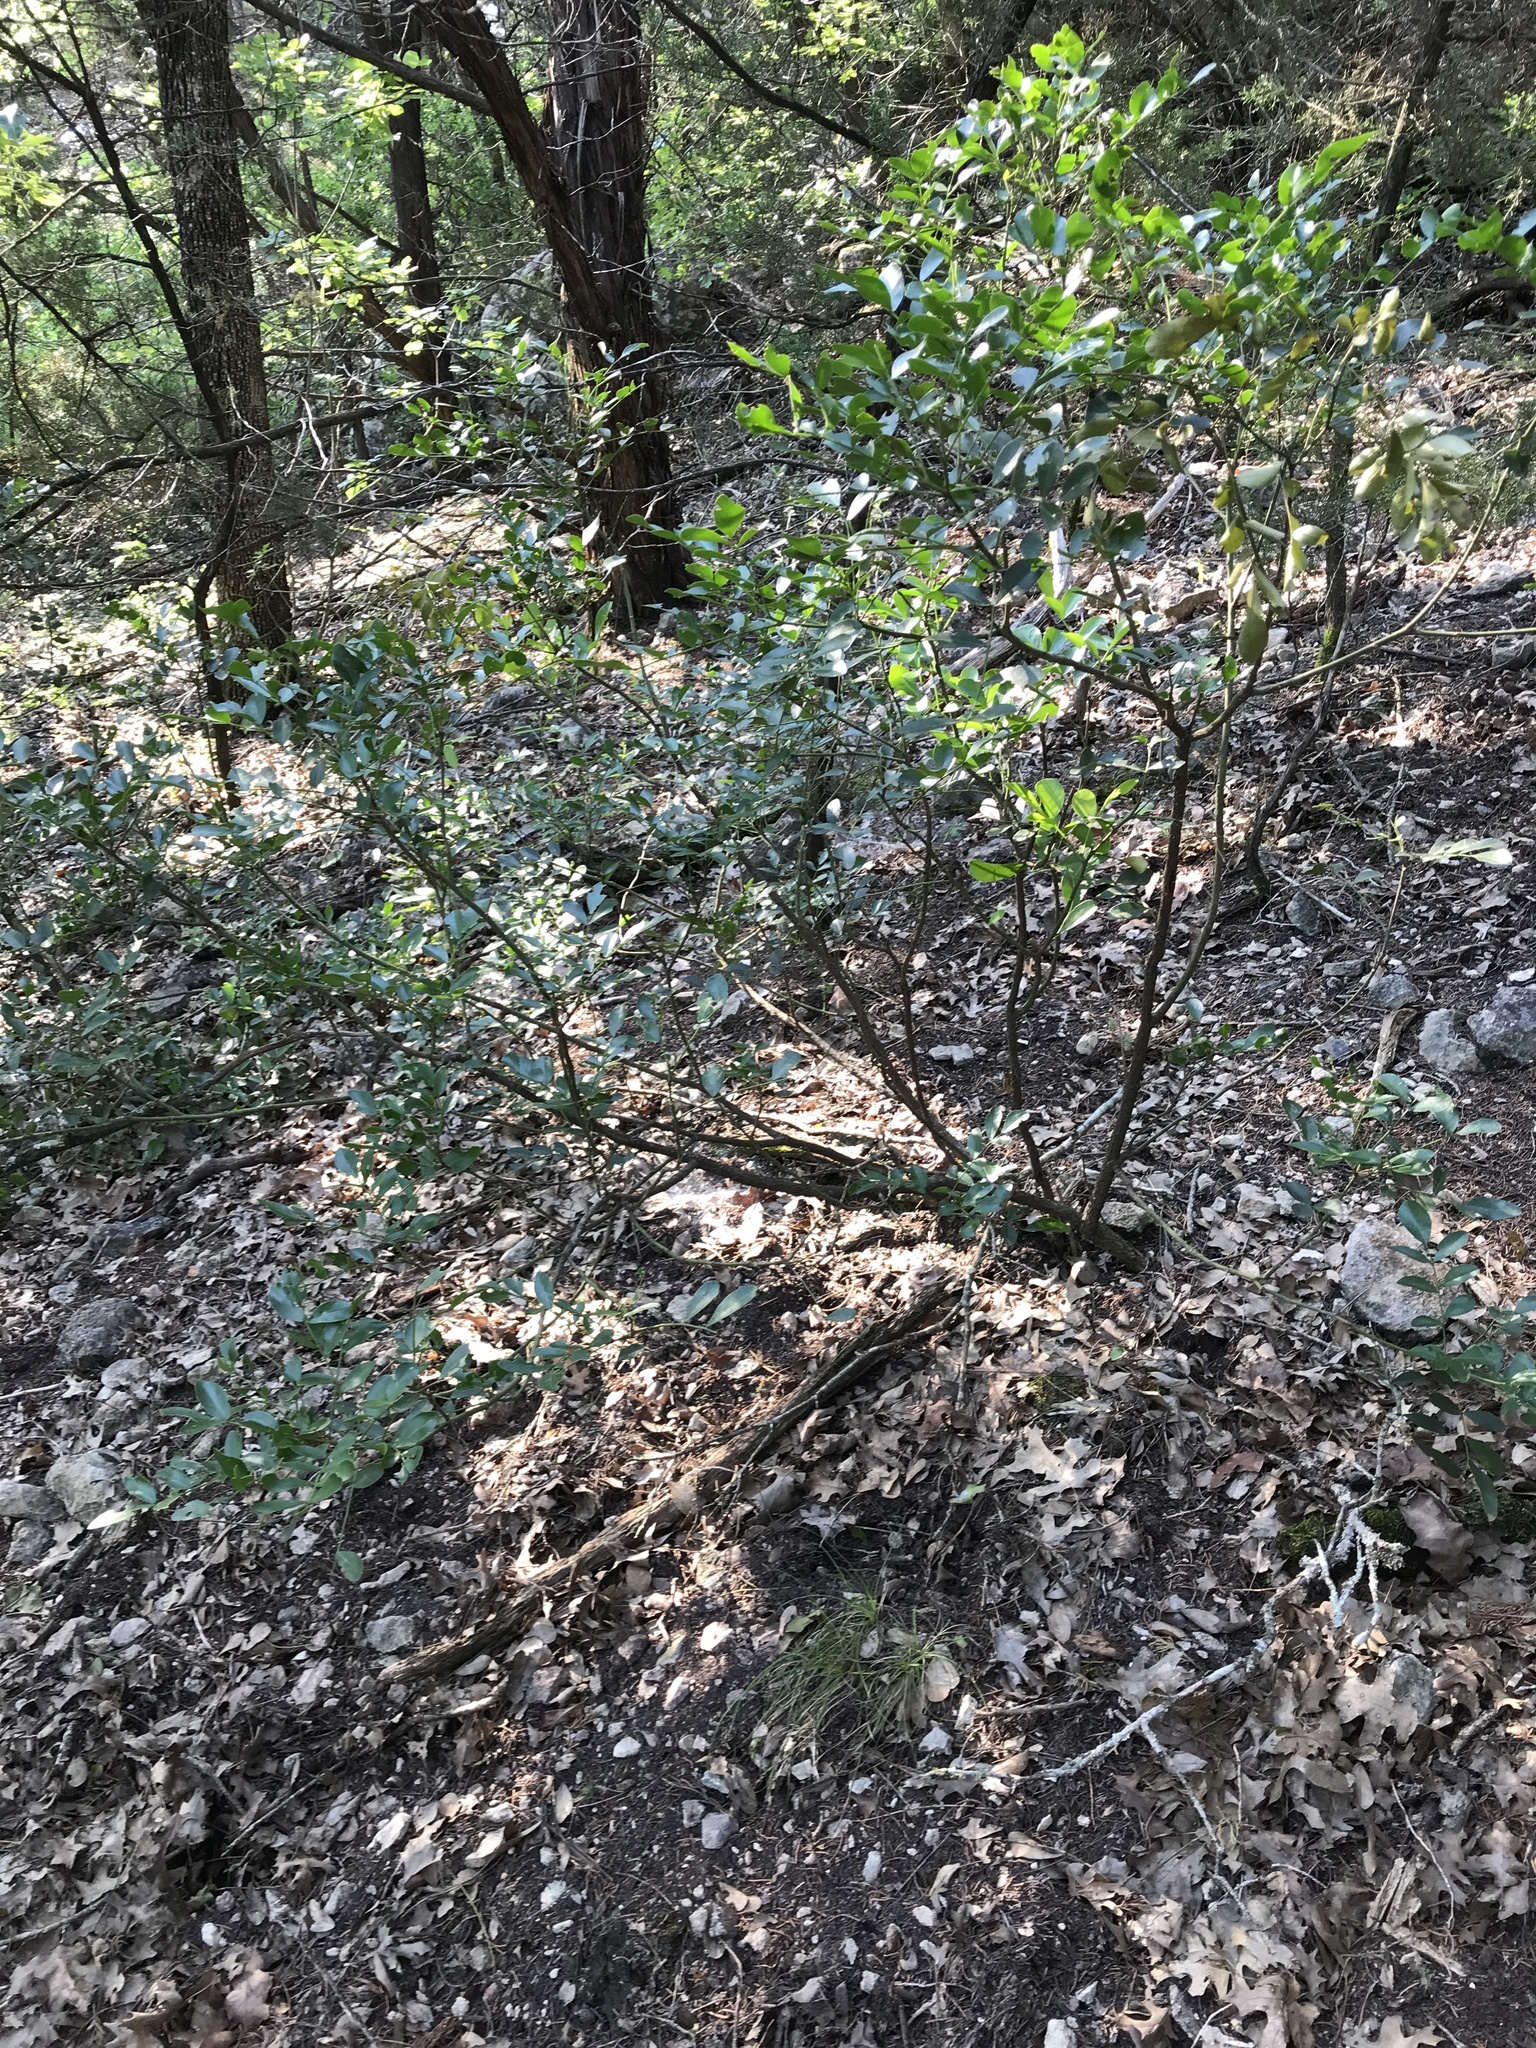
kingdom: Plantae
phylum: Tracheophyta
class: Magnoliopsida
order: Fabales
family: Fabaceae
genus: Dermatophyllum
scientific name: Dermatophyllum secundiflorum
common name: Texas-mountain-laurel
